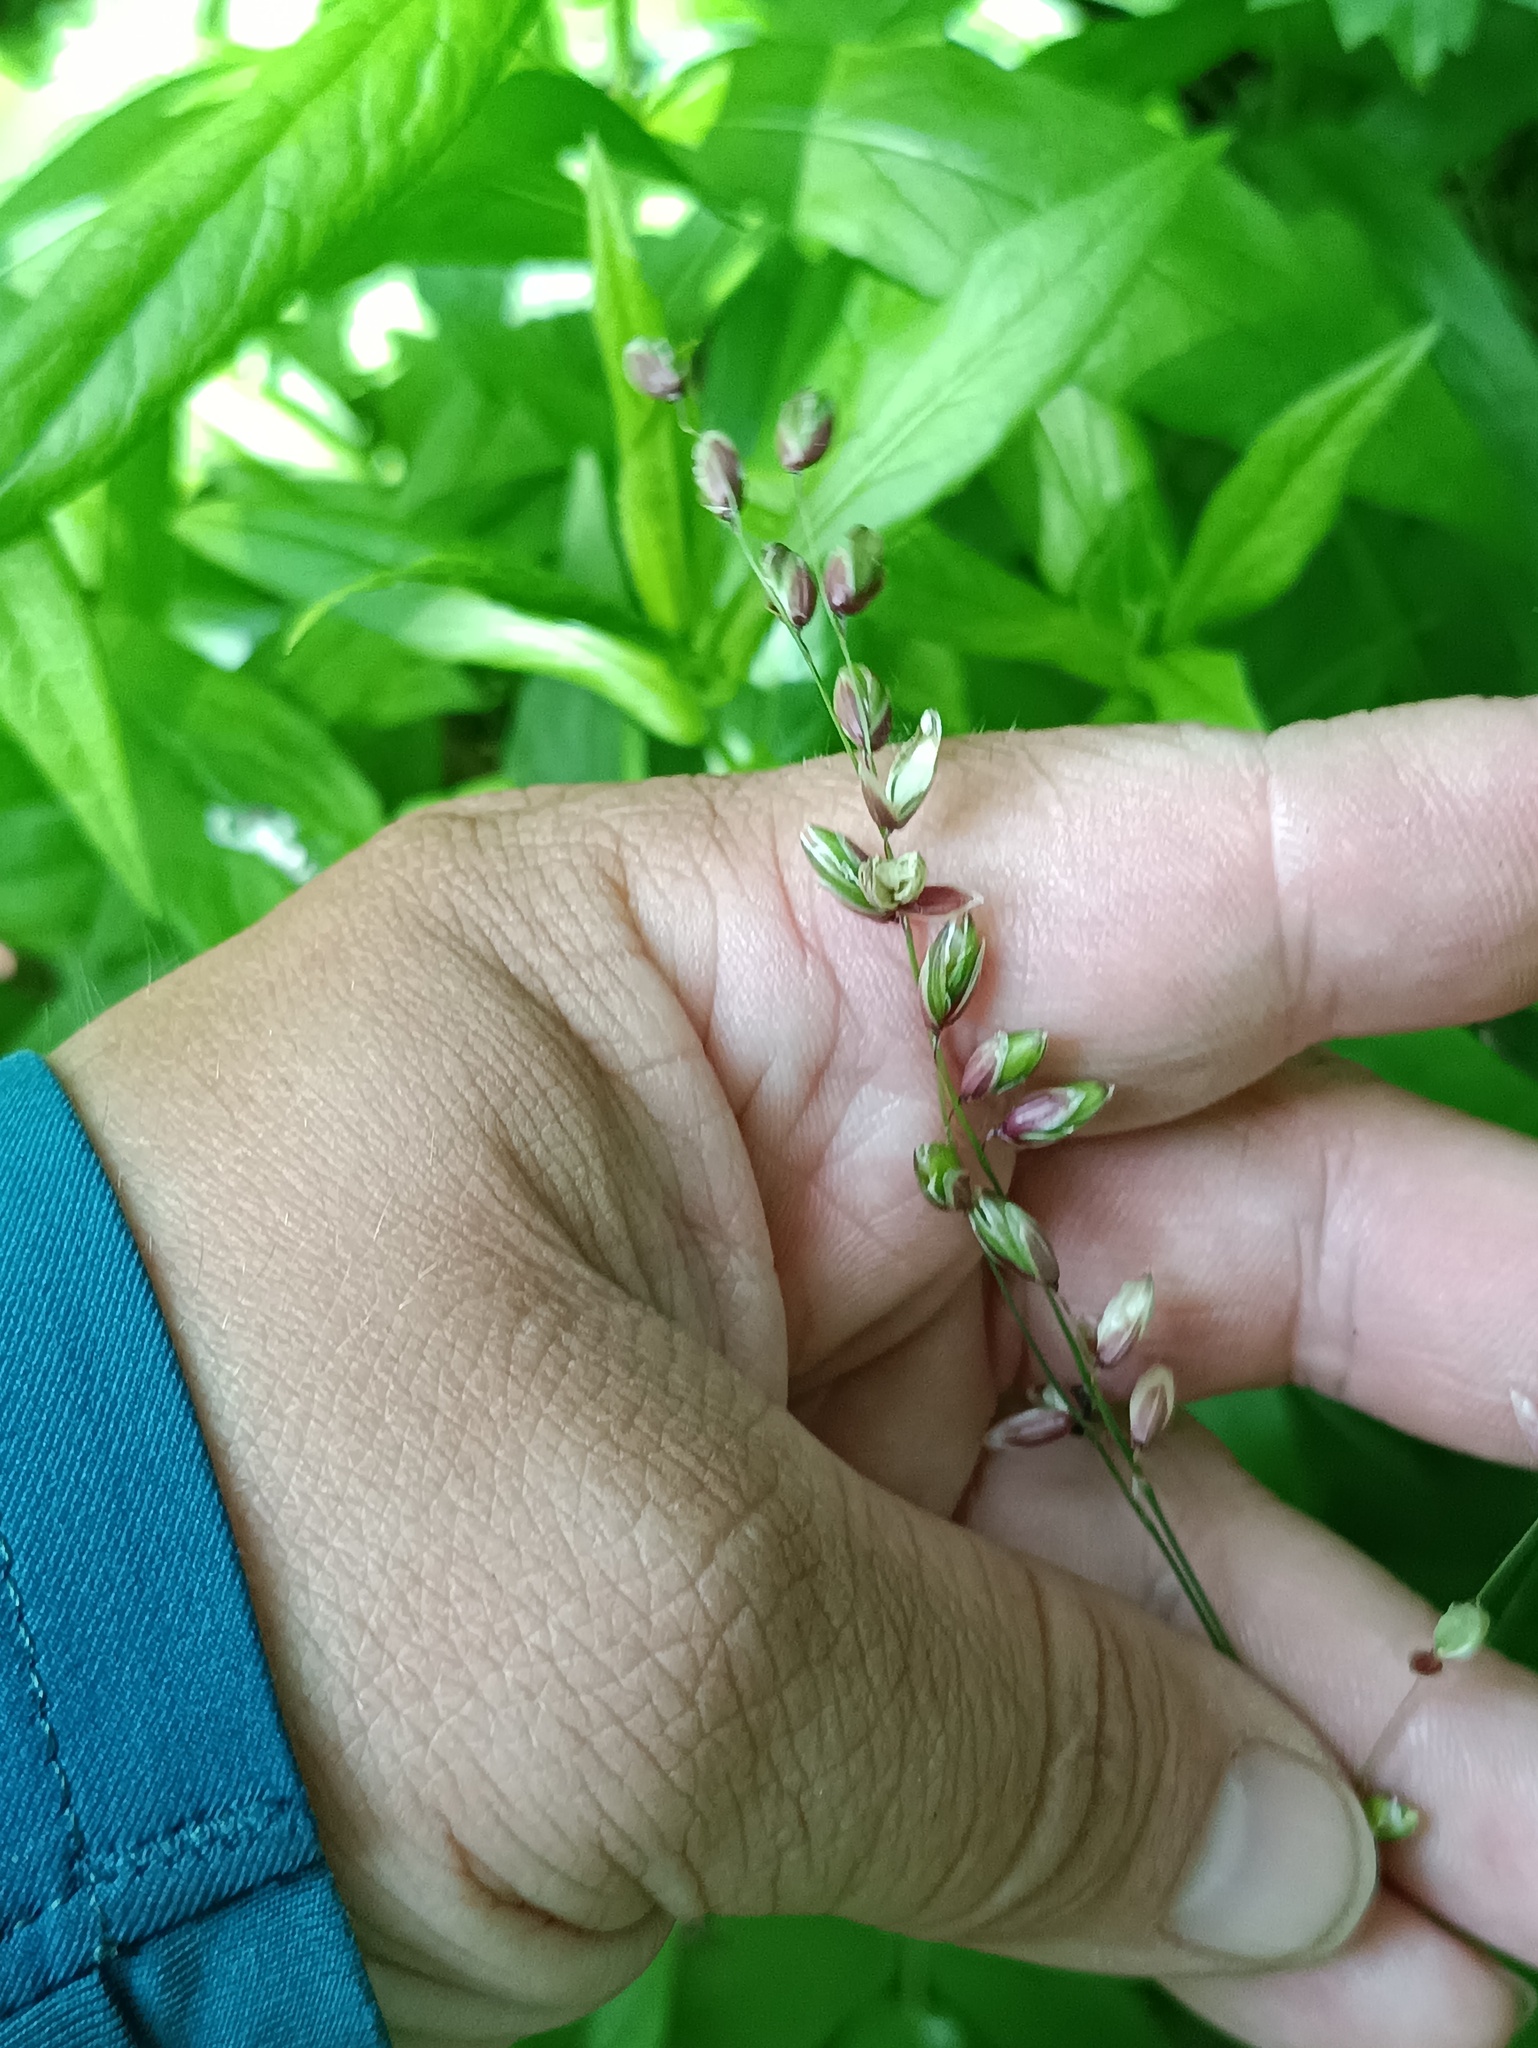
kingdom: Plantae
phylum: Tracheophyta
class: Liliopsida
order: Poales
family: Poaceae
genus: Melica
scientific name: Melica nutans
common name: Mountain melick
